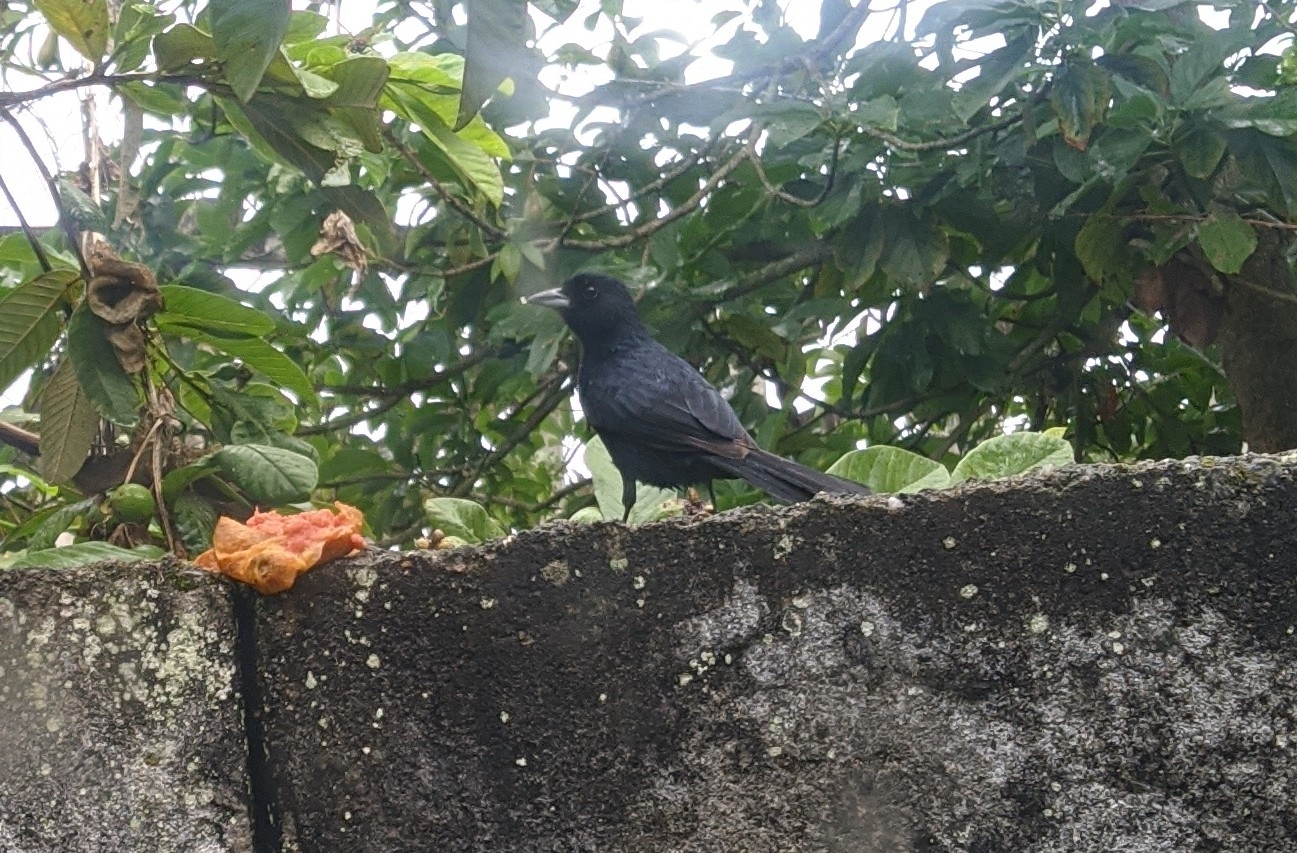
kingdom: Animalia
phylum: Chordata
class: Aves
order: Passeriformes
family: Thraupidae
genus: Tachyphonus
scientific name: Tachyphonus rufus
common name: White-lined tanager
